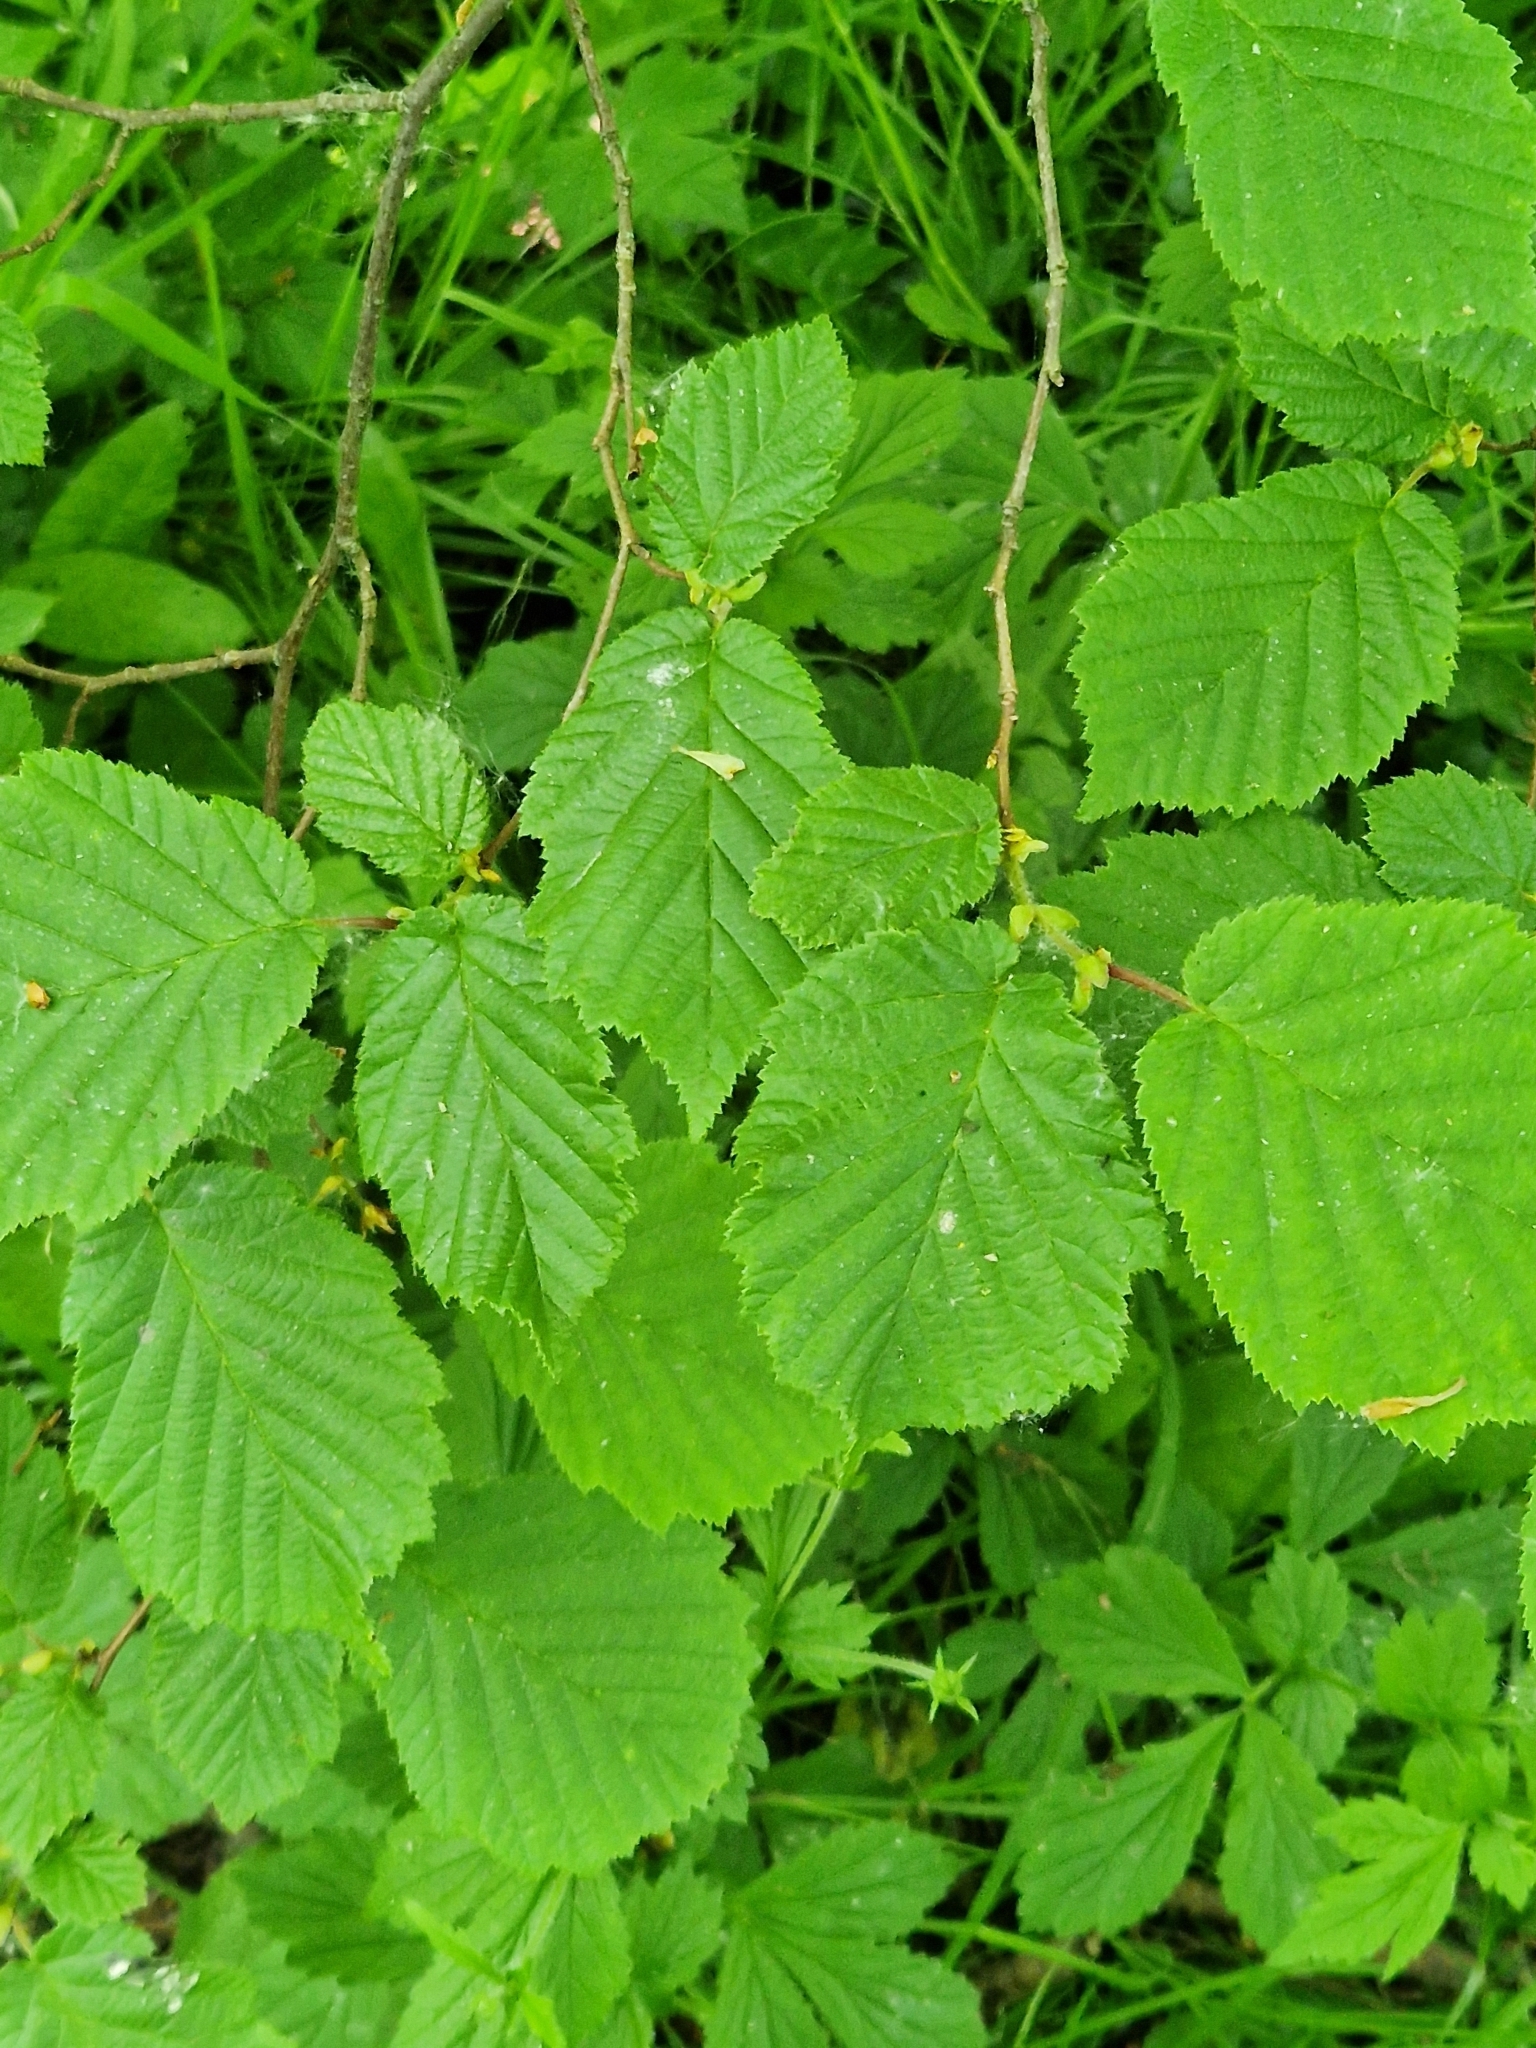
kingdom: Plantae
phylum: Tracheophyta
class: Magnoliopsida
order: Fagales
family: Betulaceae
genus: Corylus
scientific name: Corylus avellana
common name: European hazel
